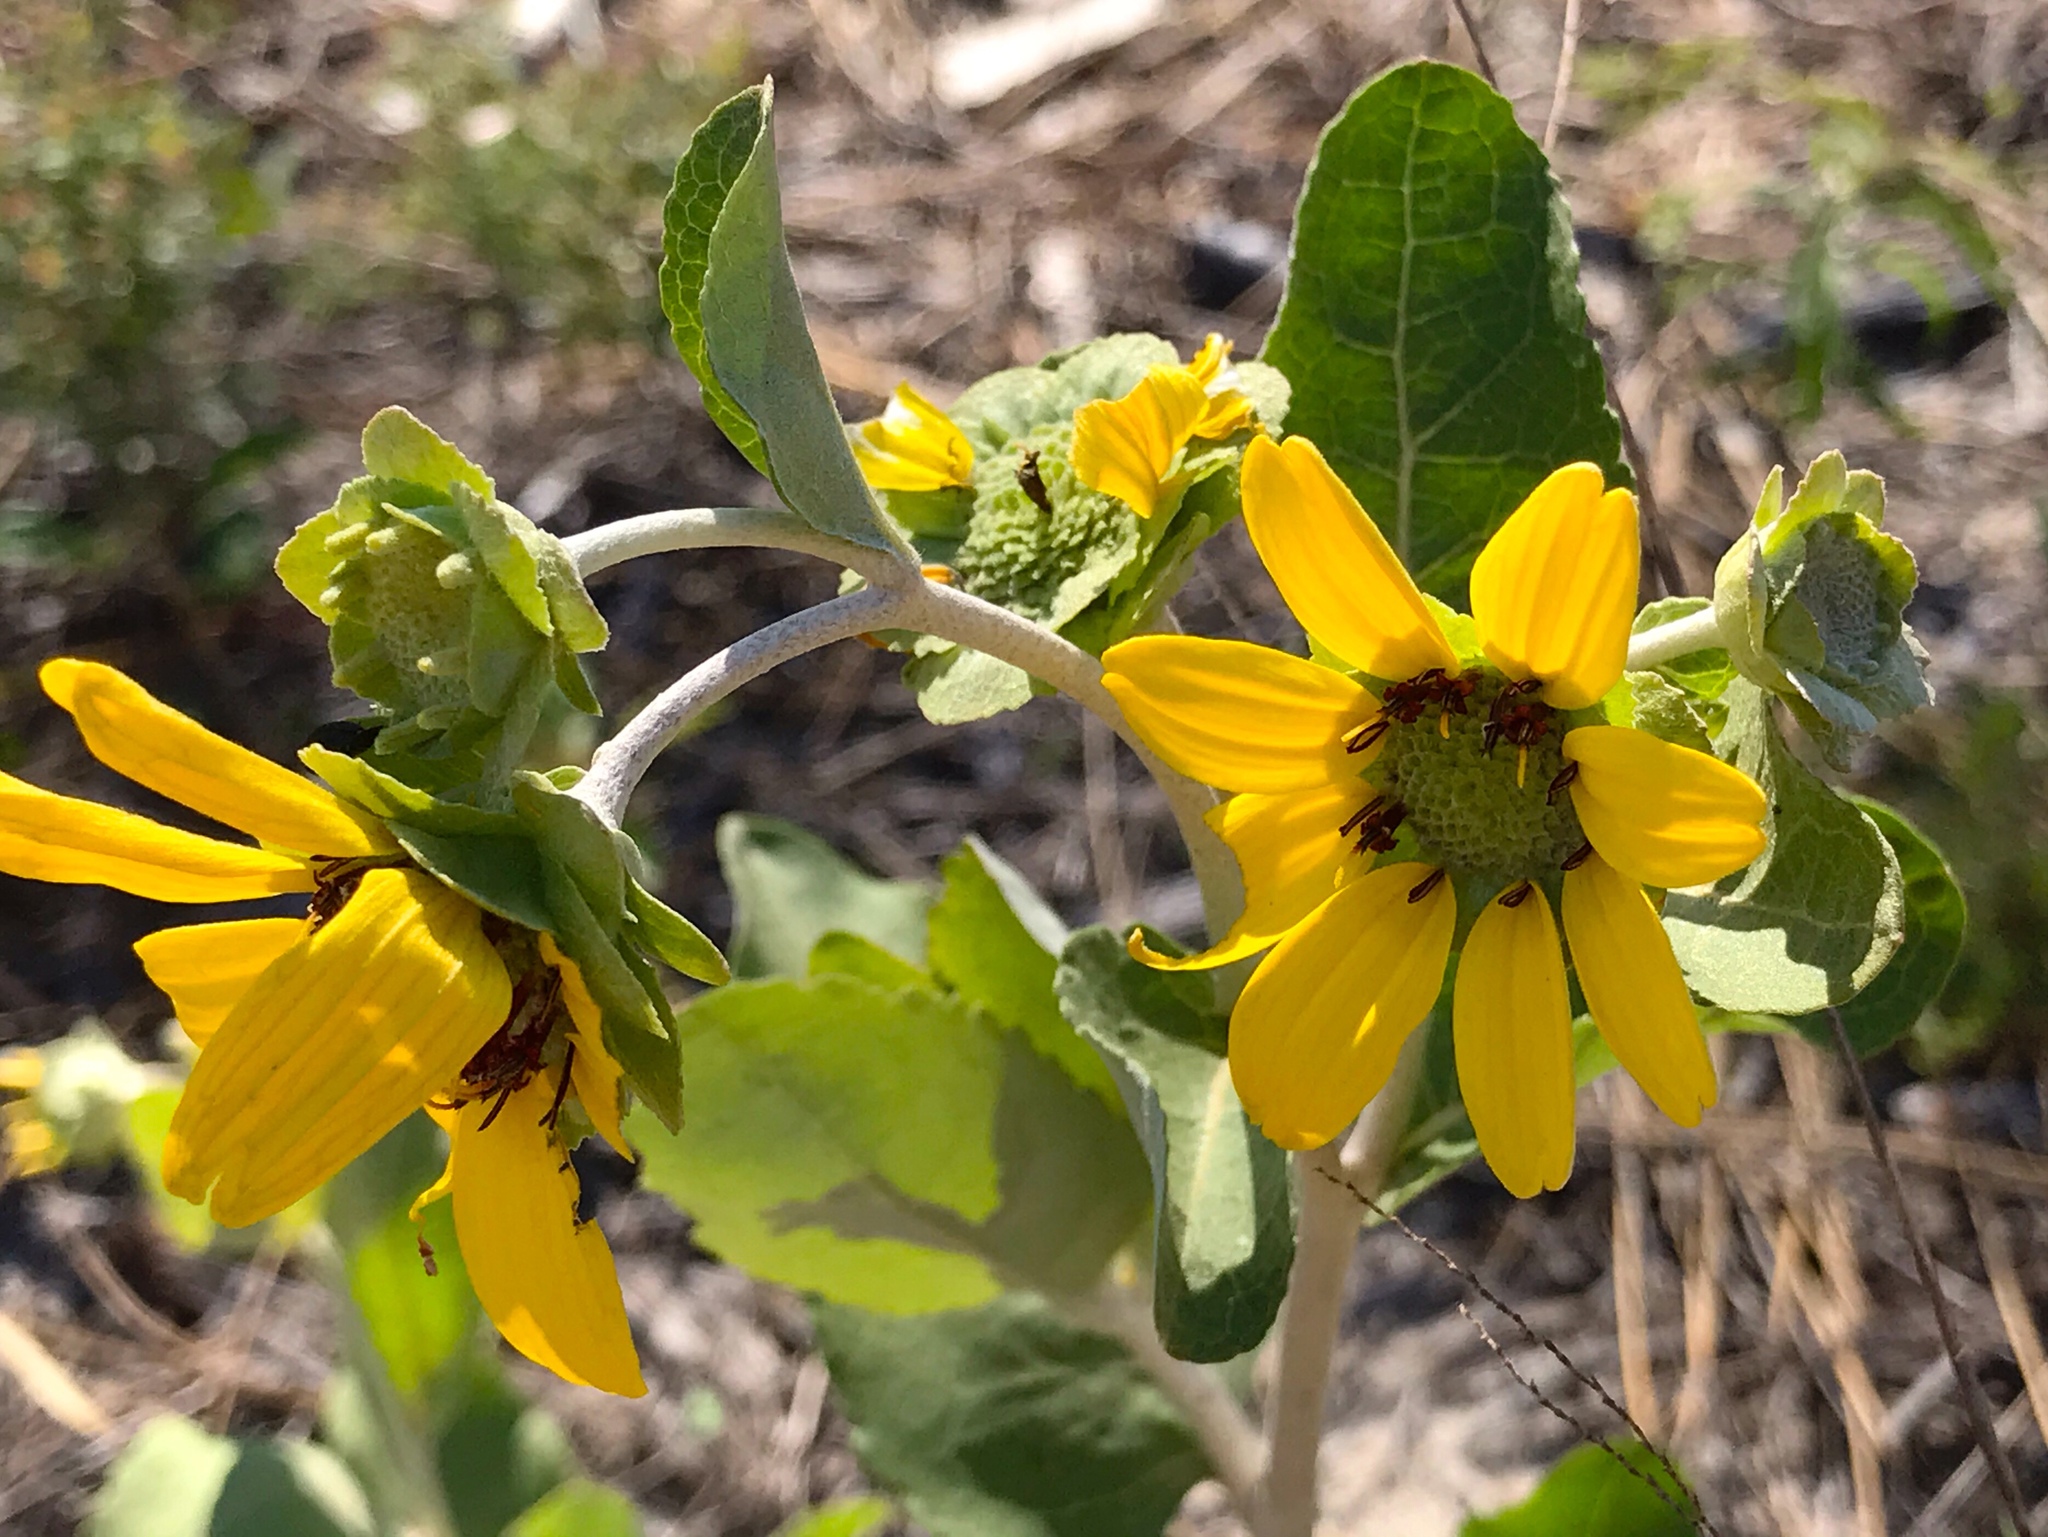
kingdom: Plantae
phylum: Tracheophyta
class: Magnoliopsida
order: Asterales
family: Asteraceae
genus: Berlandiera
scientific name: Berlandiera pumila
